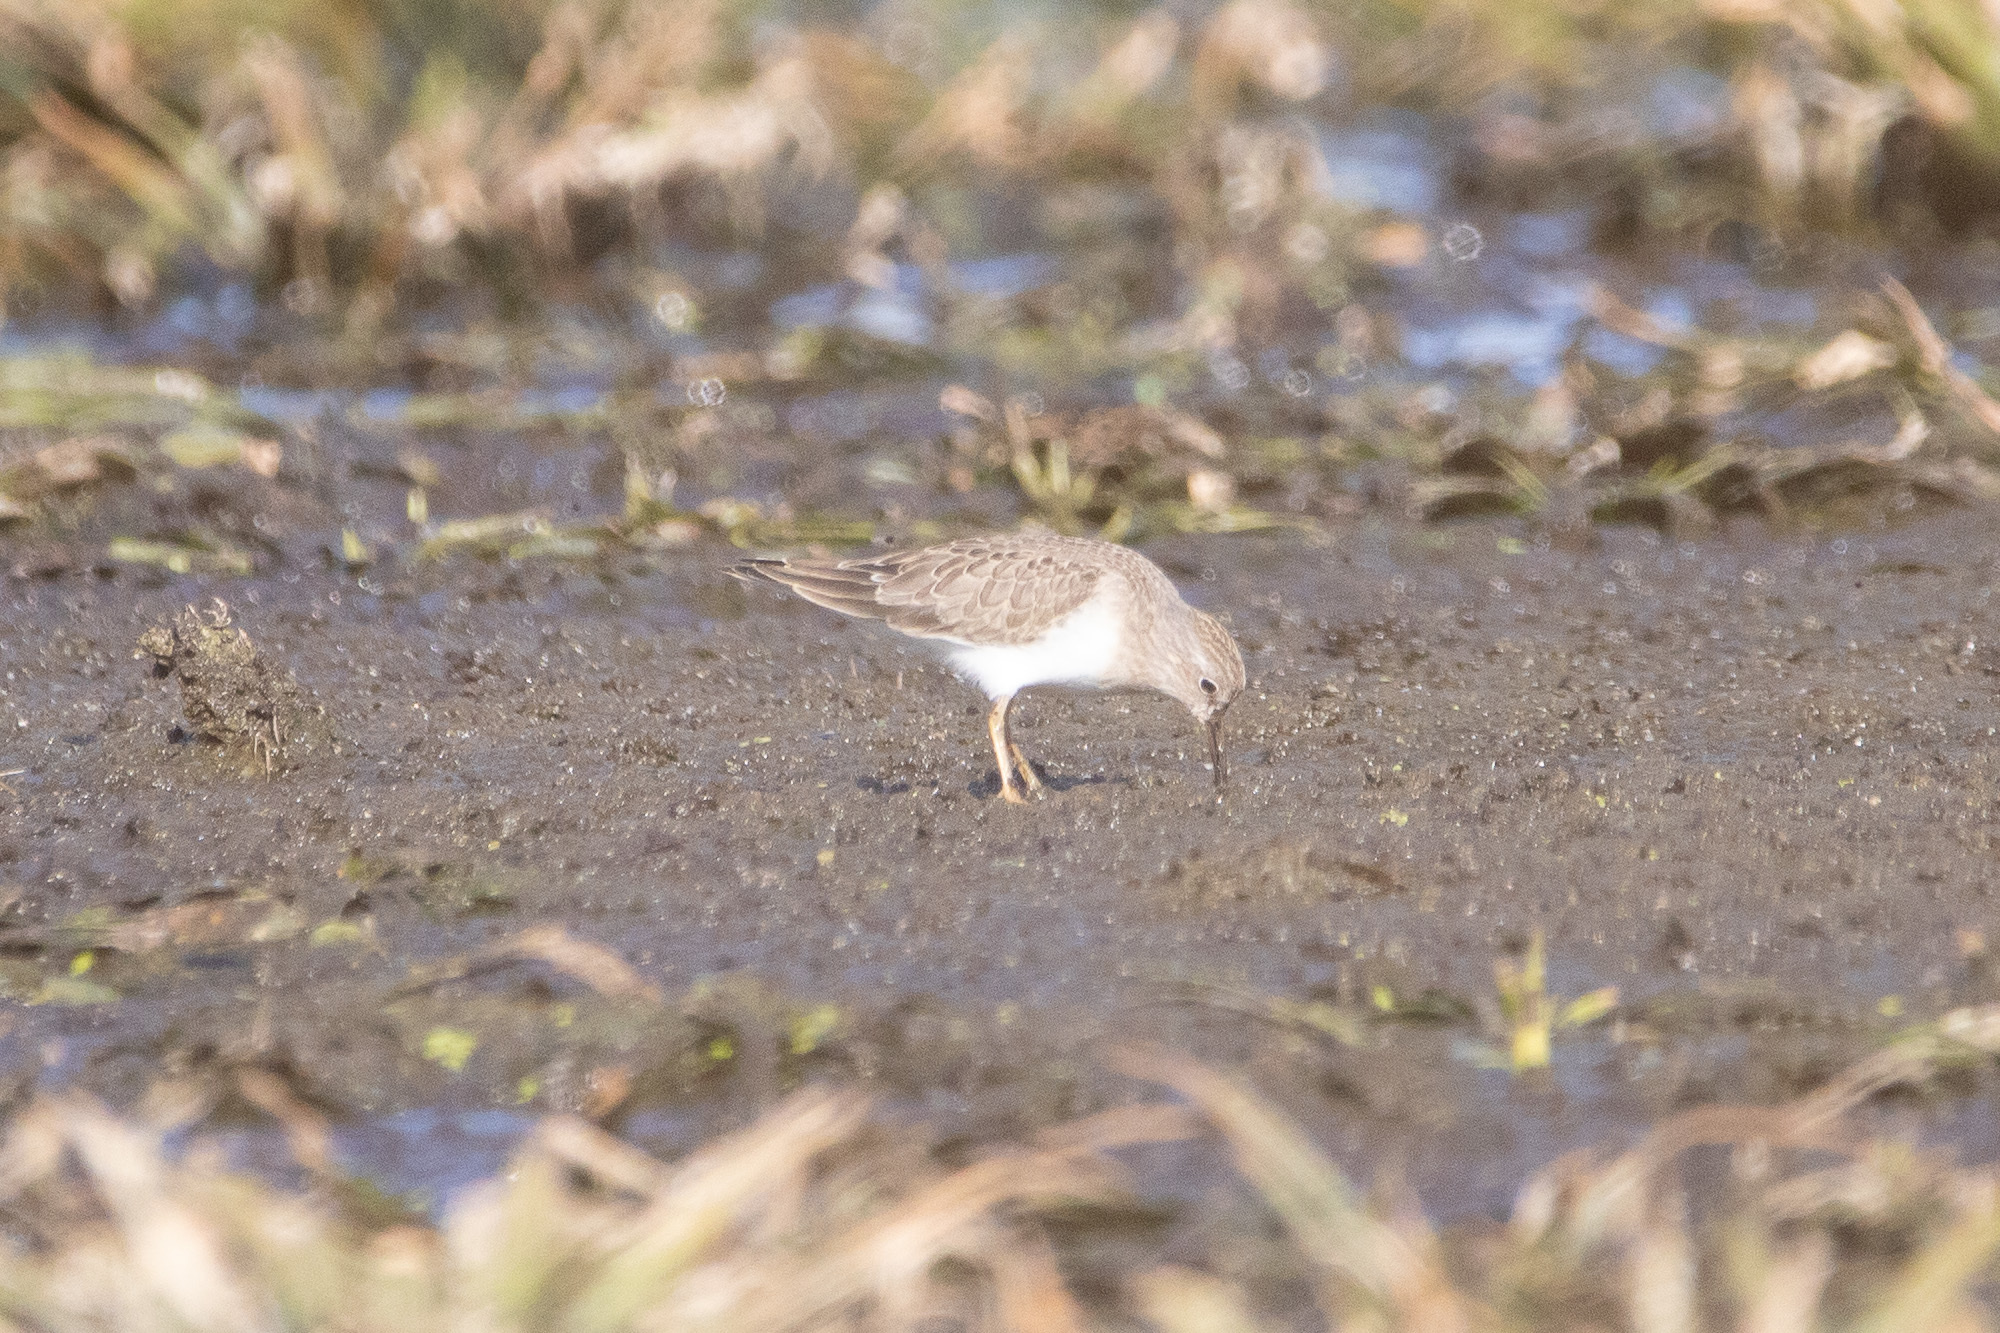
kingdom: Animalia
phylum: Chordata
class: Aves
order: Charadriiformes
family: Scolopacidae
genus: Calidris
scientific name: Calidris temminckii
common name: Temminck's stint
